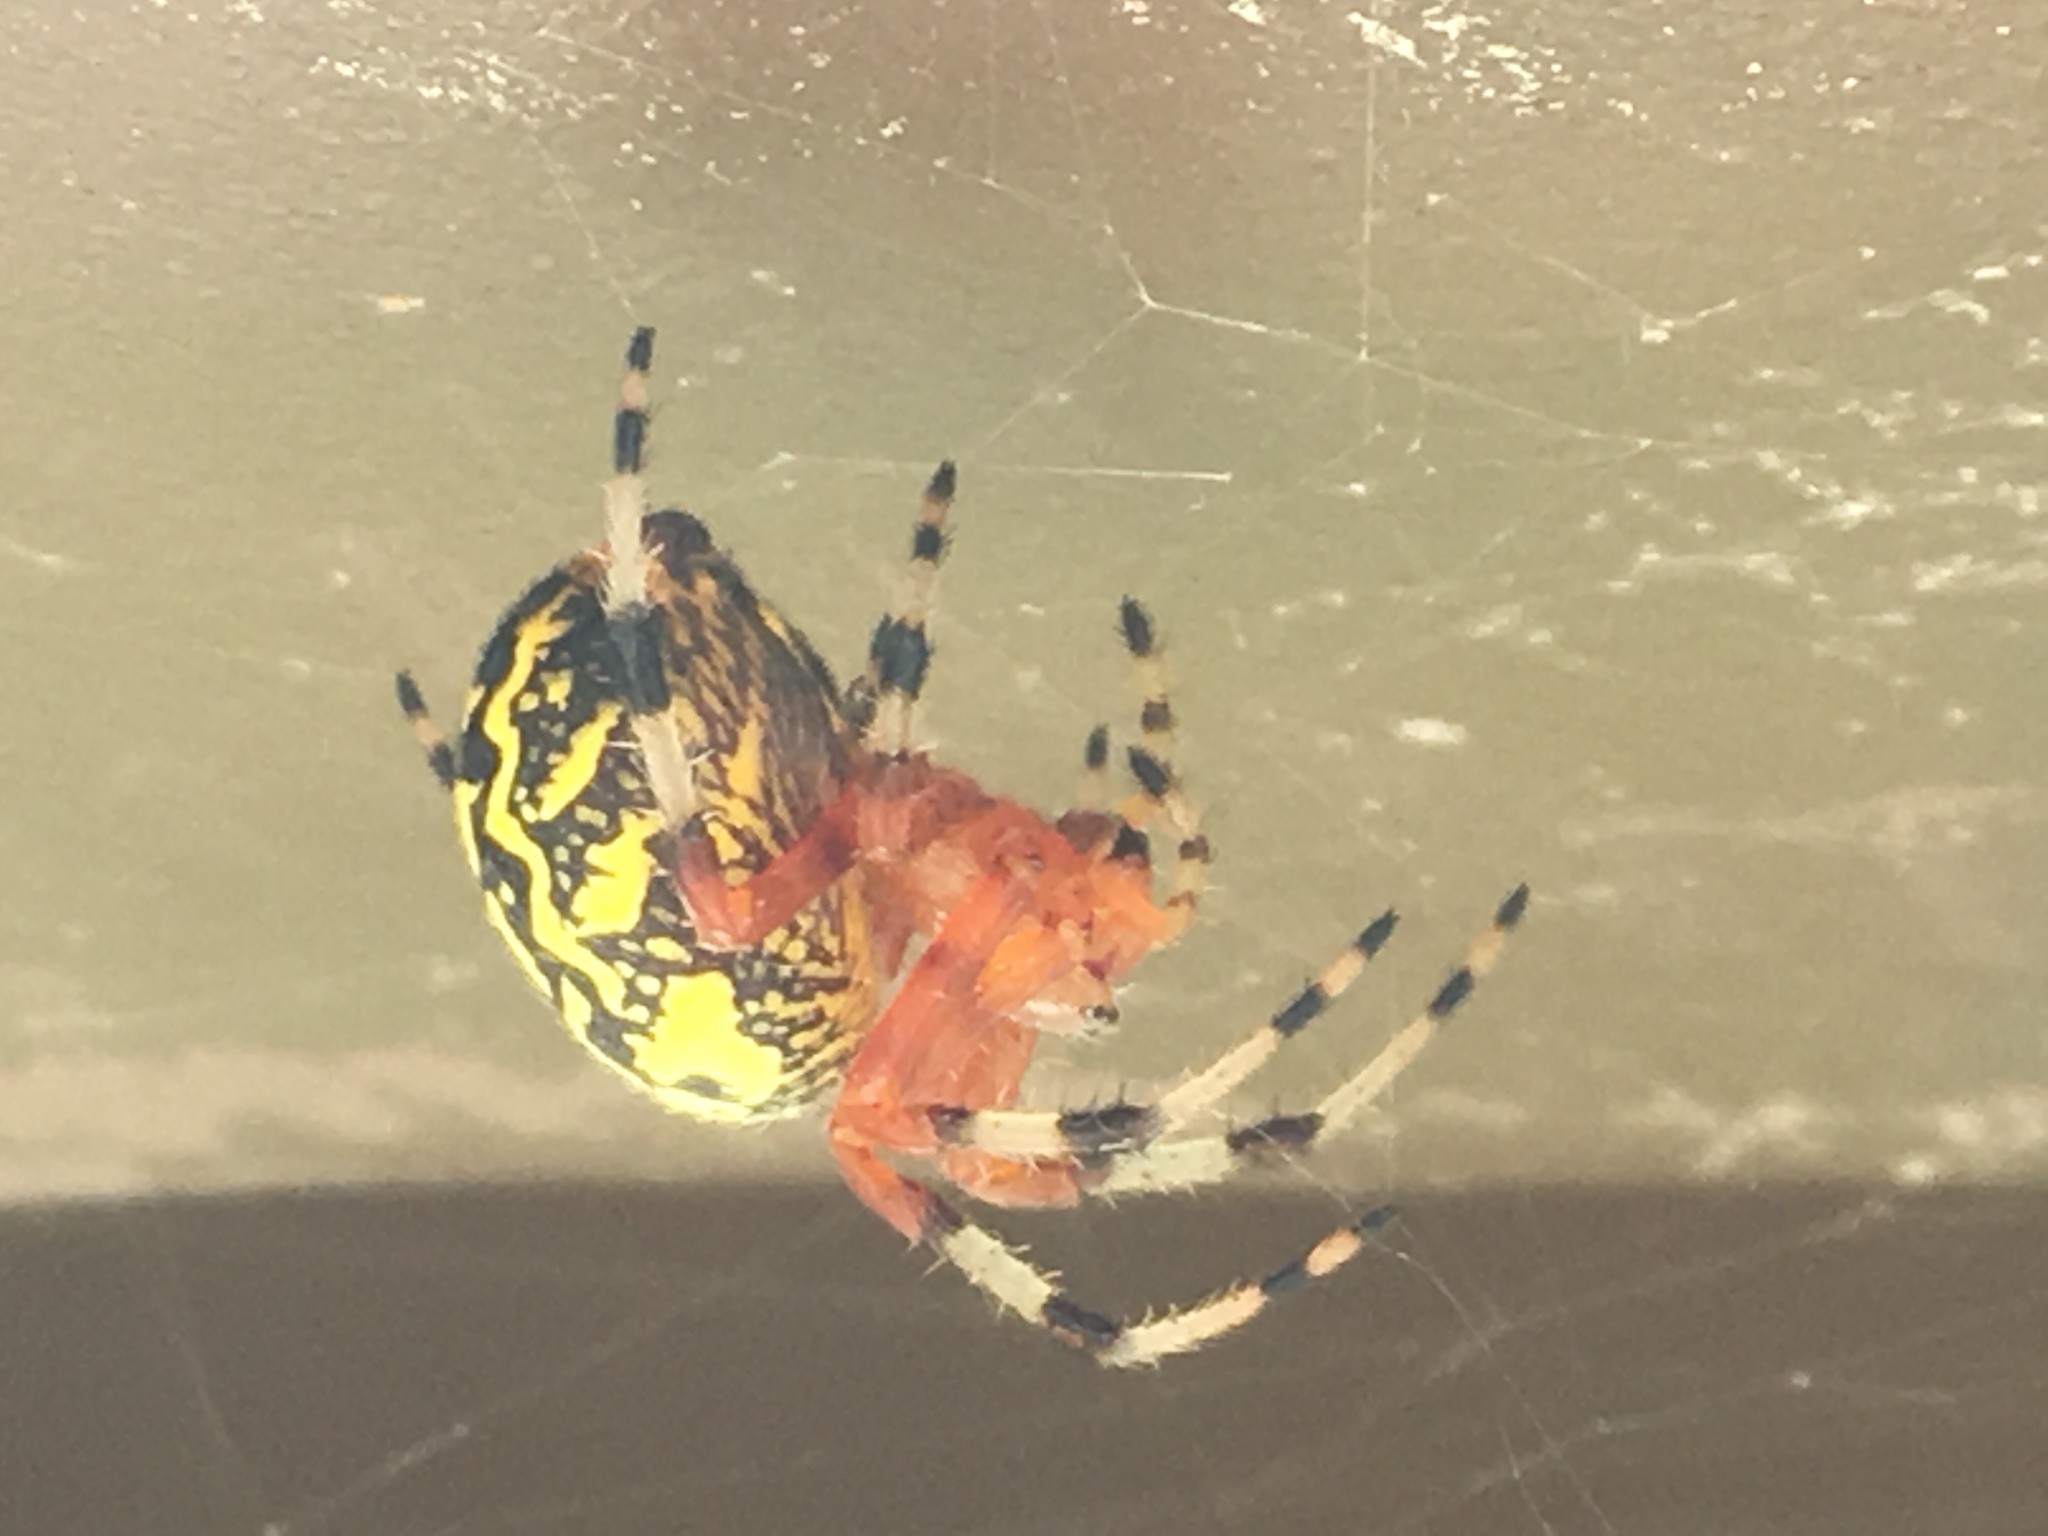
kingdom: Animalia
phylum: Arthropoda
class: Arachnida
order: Araneae
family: Araneidae
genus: Araneus
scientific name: Araneus marmoreus
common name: Marbled orbweaver
